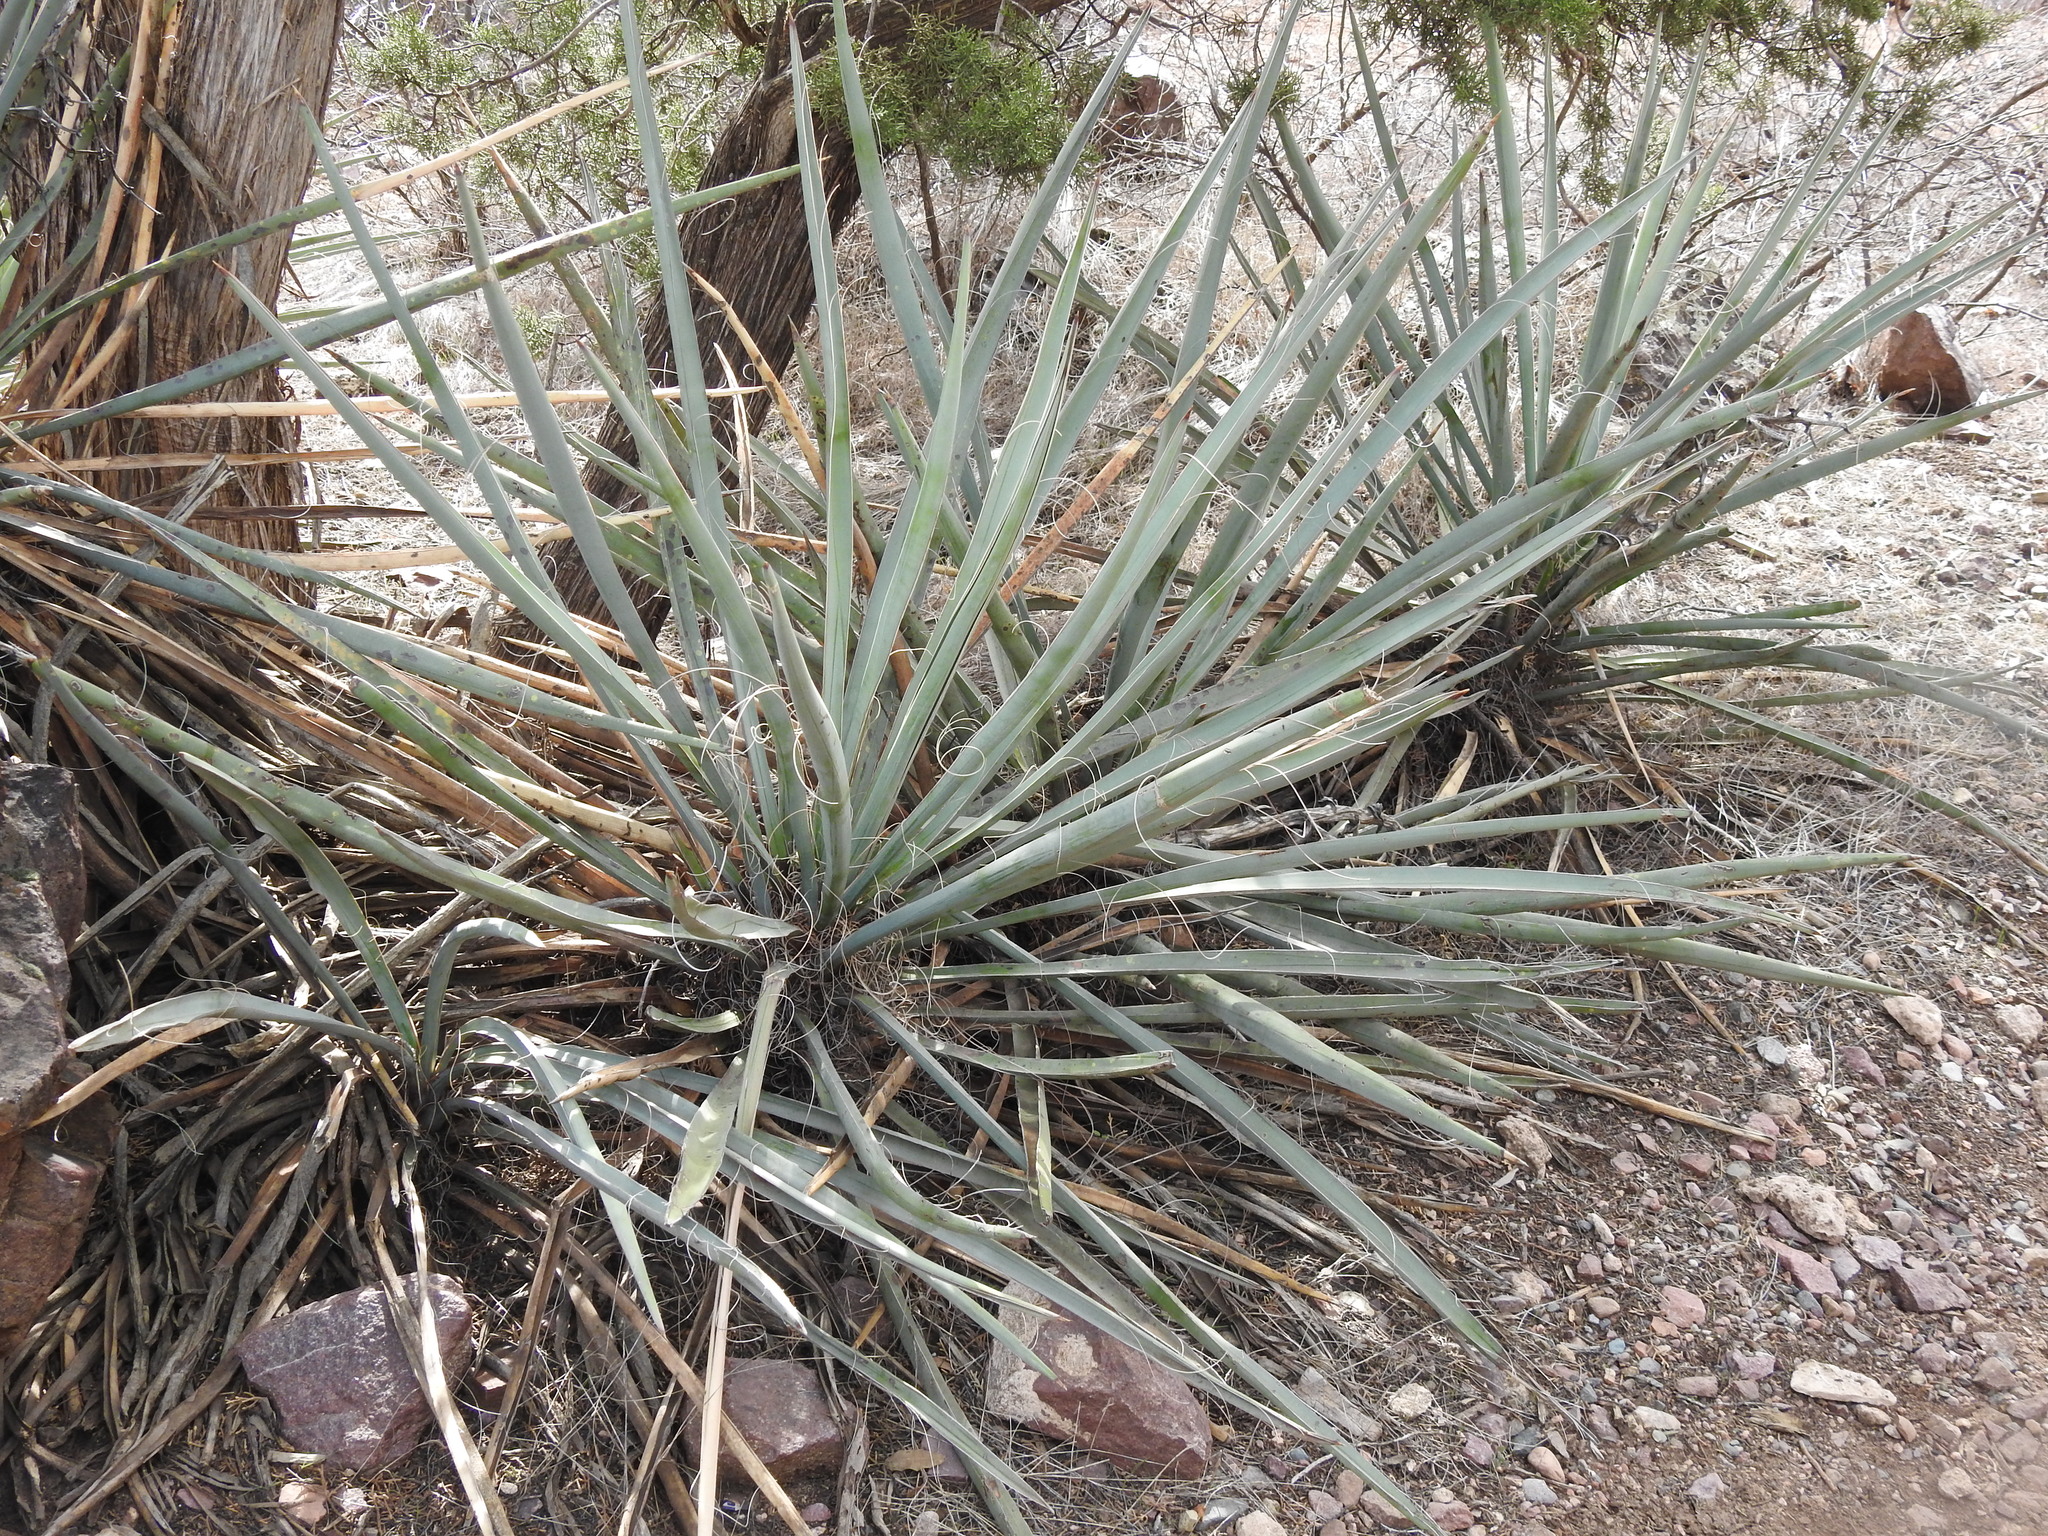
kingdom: Plantae
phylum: Tracheophyta
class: Liliopsida
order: Asparagales
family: Asparagaceae
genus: Yucca
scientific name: Yucca baccata
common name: Banana yucca
